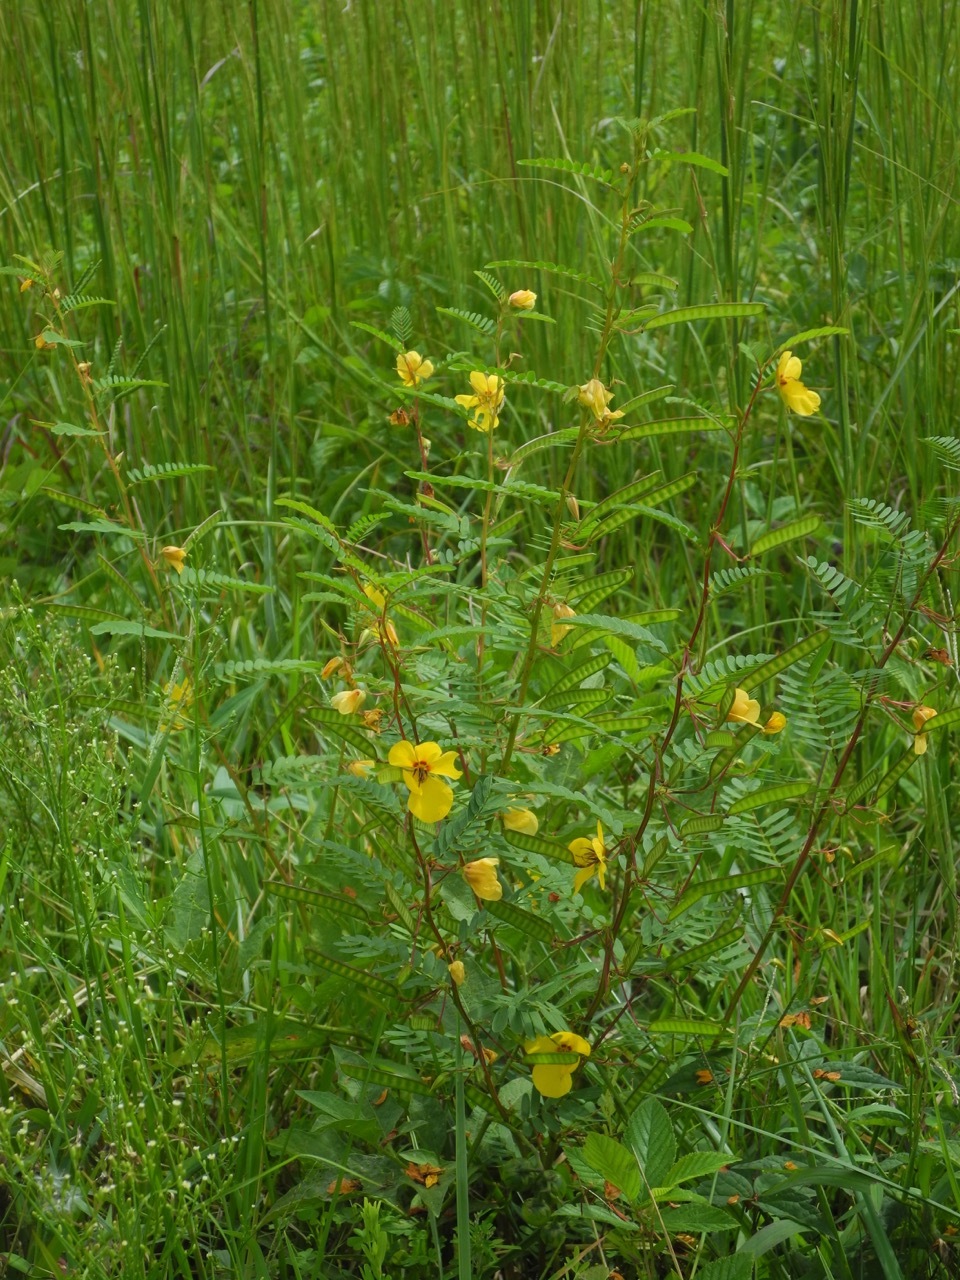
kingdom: Plantae
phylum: Tracheophyta
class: Magnoliopsida
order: Fabales
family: Fabaceae
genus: Chamaecrista
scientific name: Chamaecrista fasciculata
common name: Golden cassia
